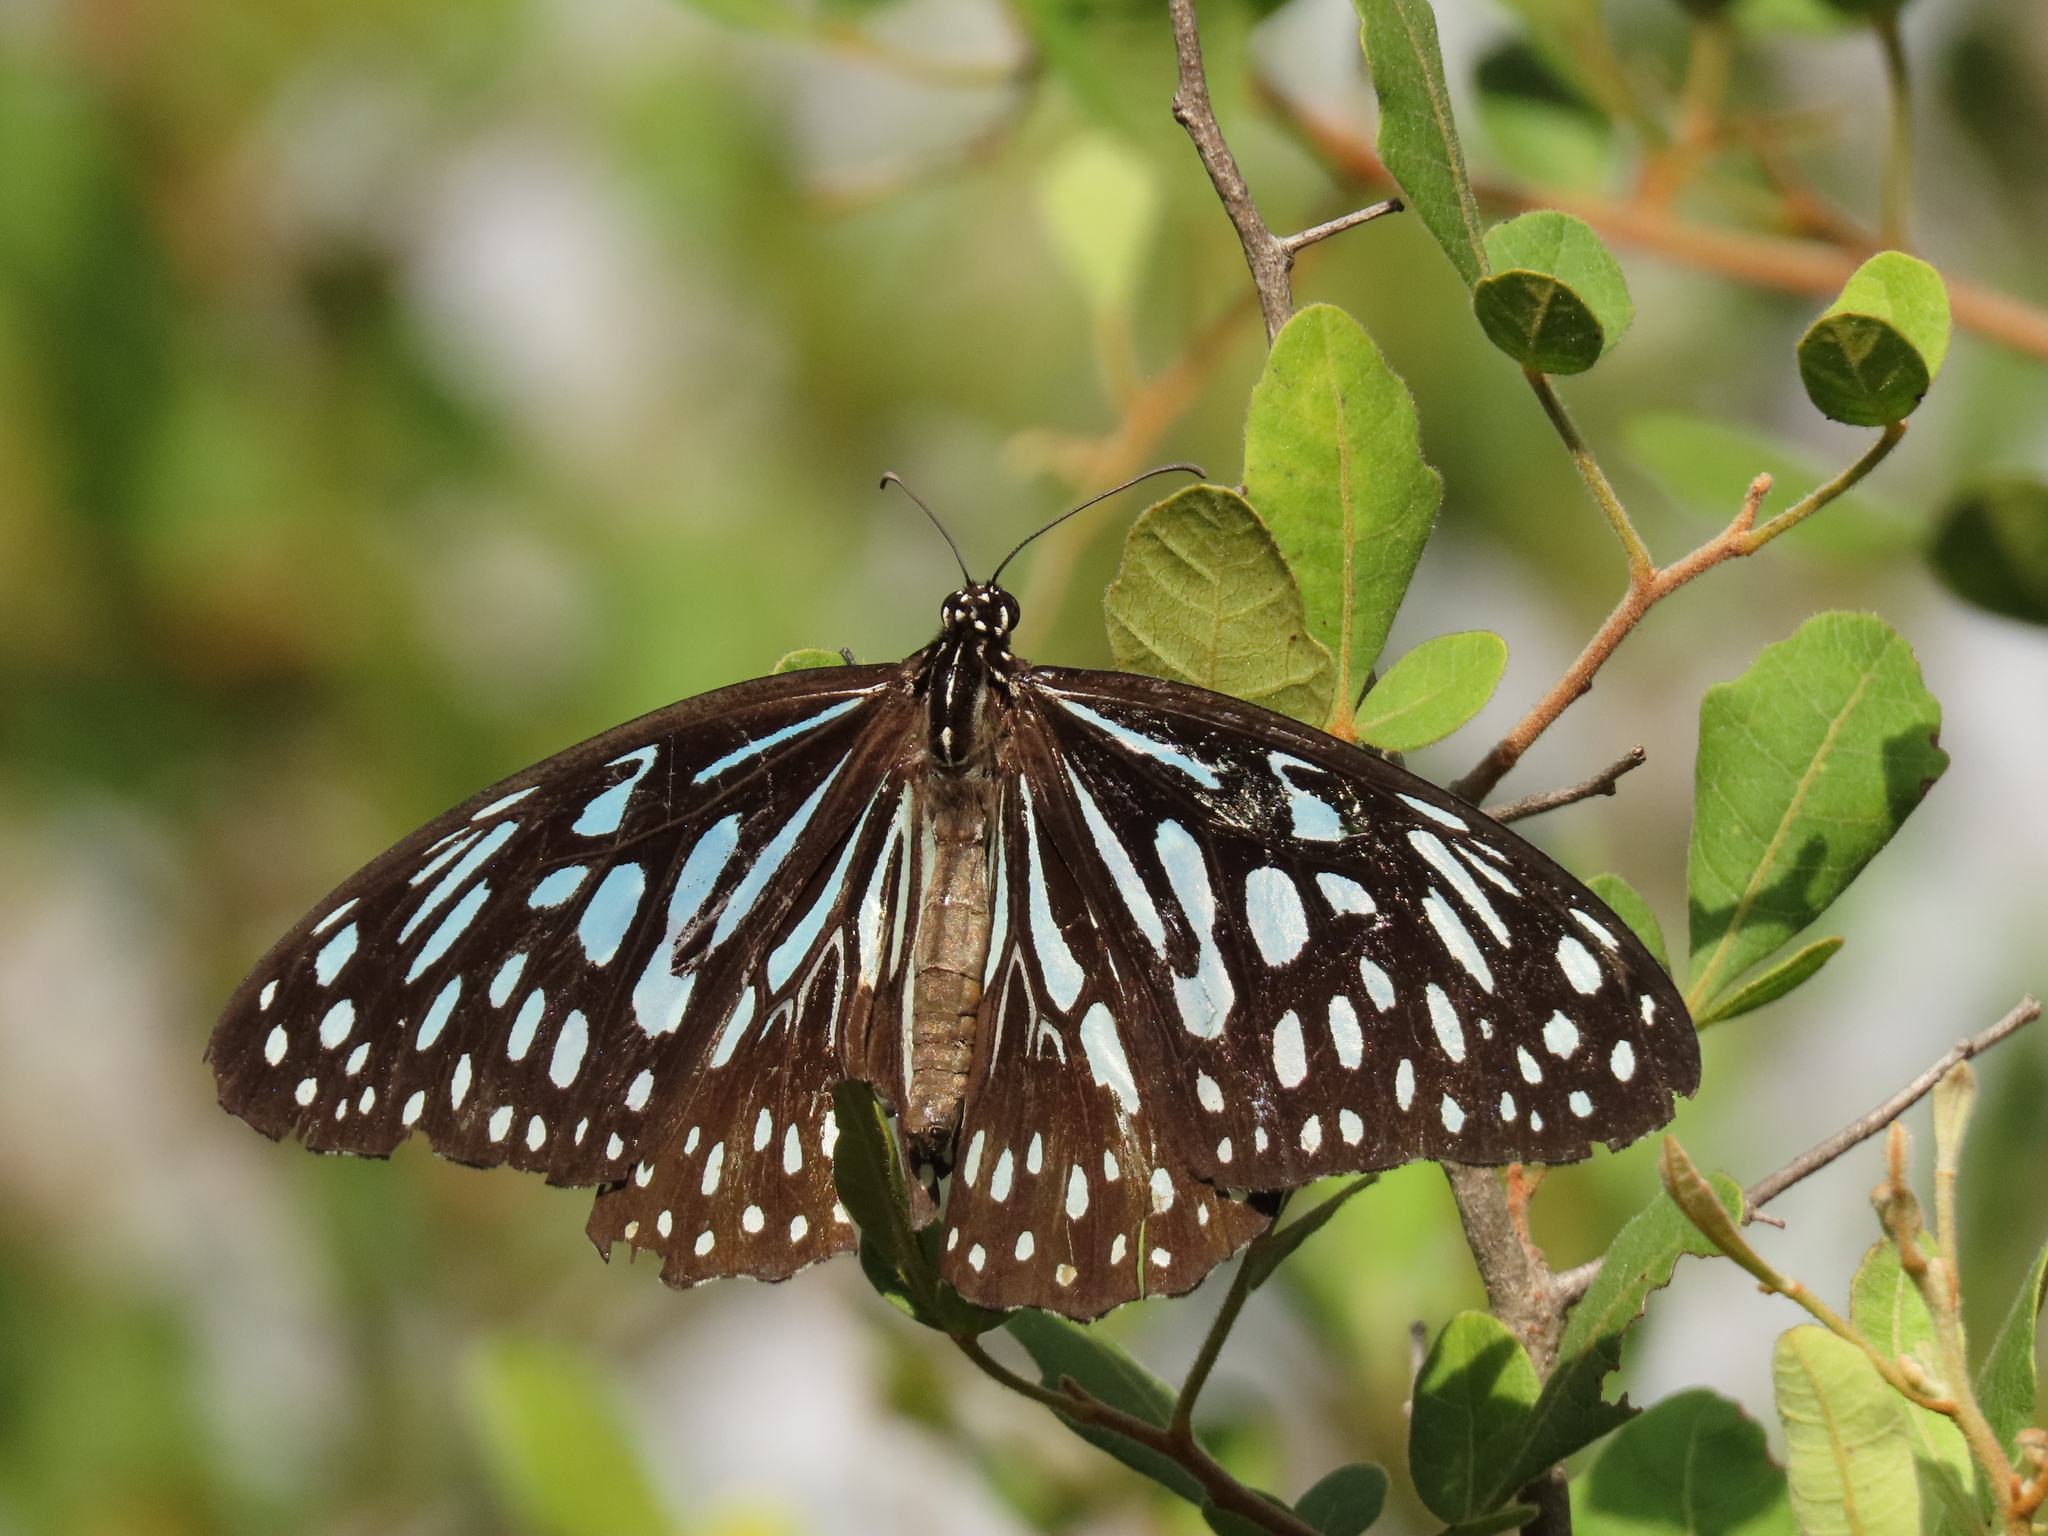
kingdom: Animalia
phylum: Arthropoda
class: Insecta
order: Lepidoptera
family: Nymphalidae
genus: Tirumala
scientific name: Tirumala septentrionis
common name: Dark blue tiger butterfly
